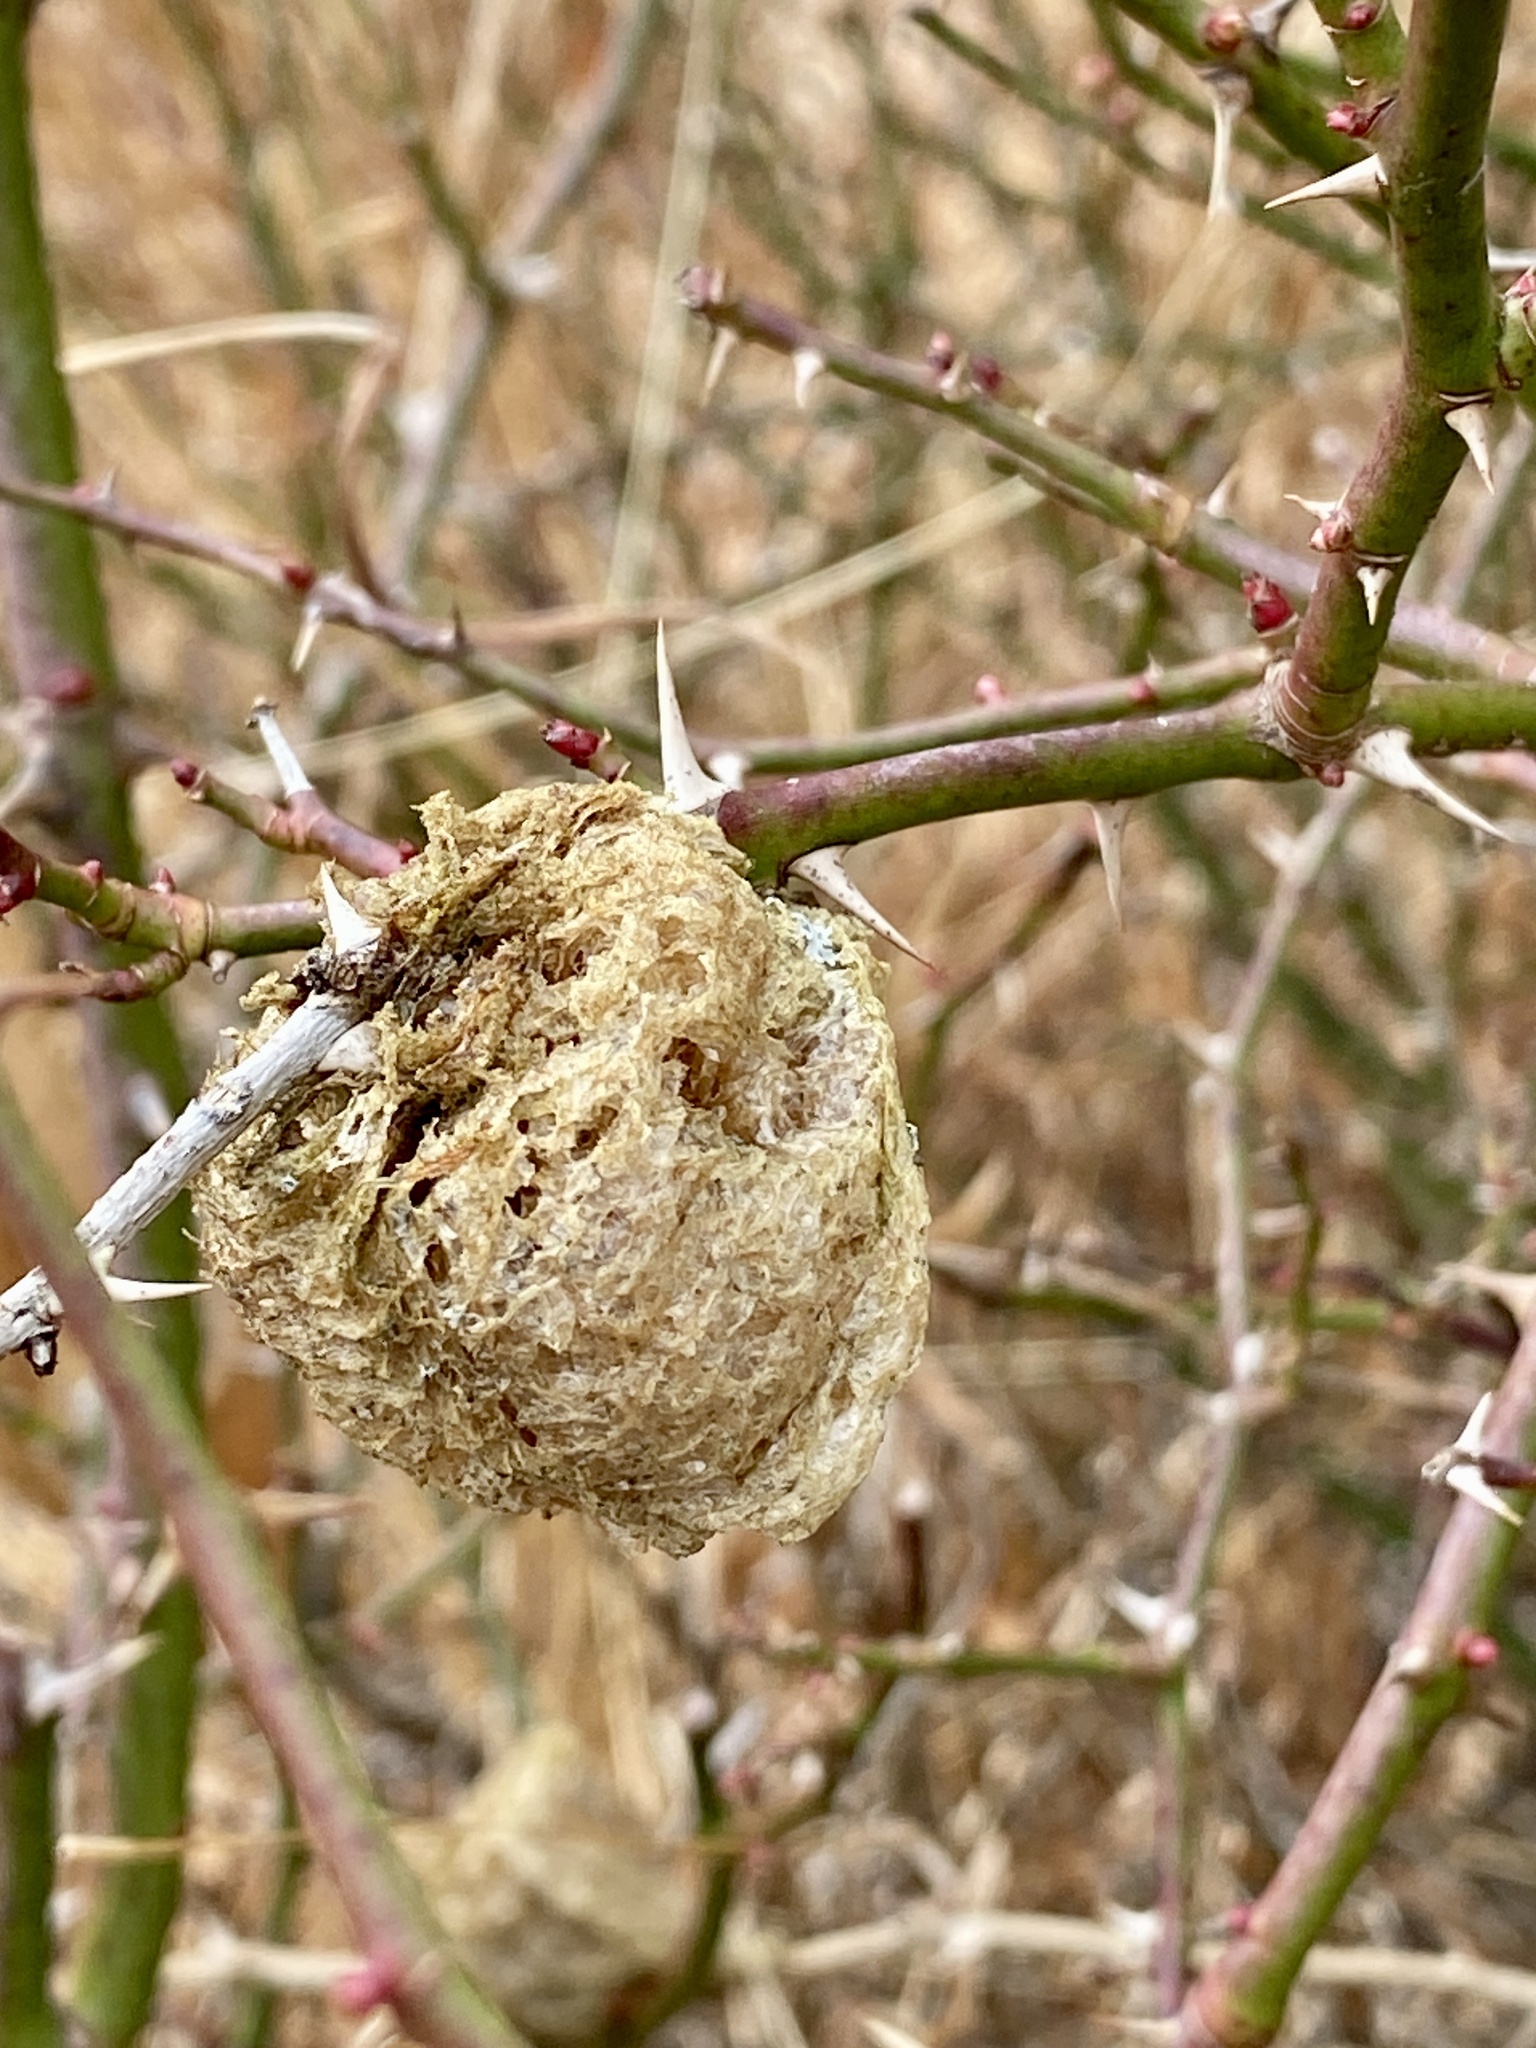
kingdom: Animalia
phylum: Arthropoda
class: Insecta
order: Mantodea
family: Mantidae
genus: Tenodera
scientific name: Tenodera sinensis
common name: Chinese mantis
